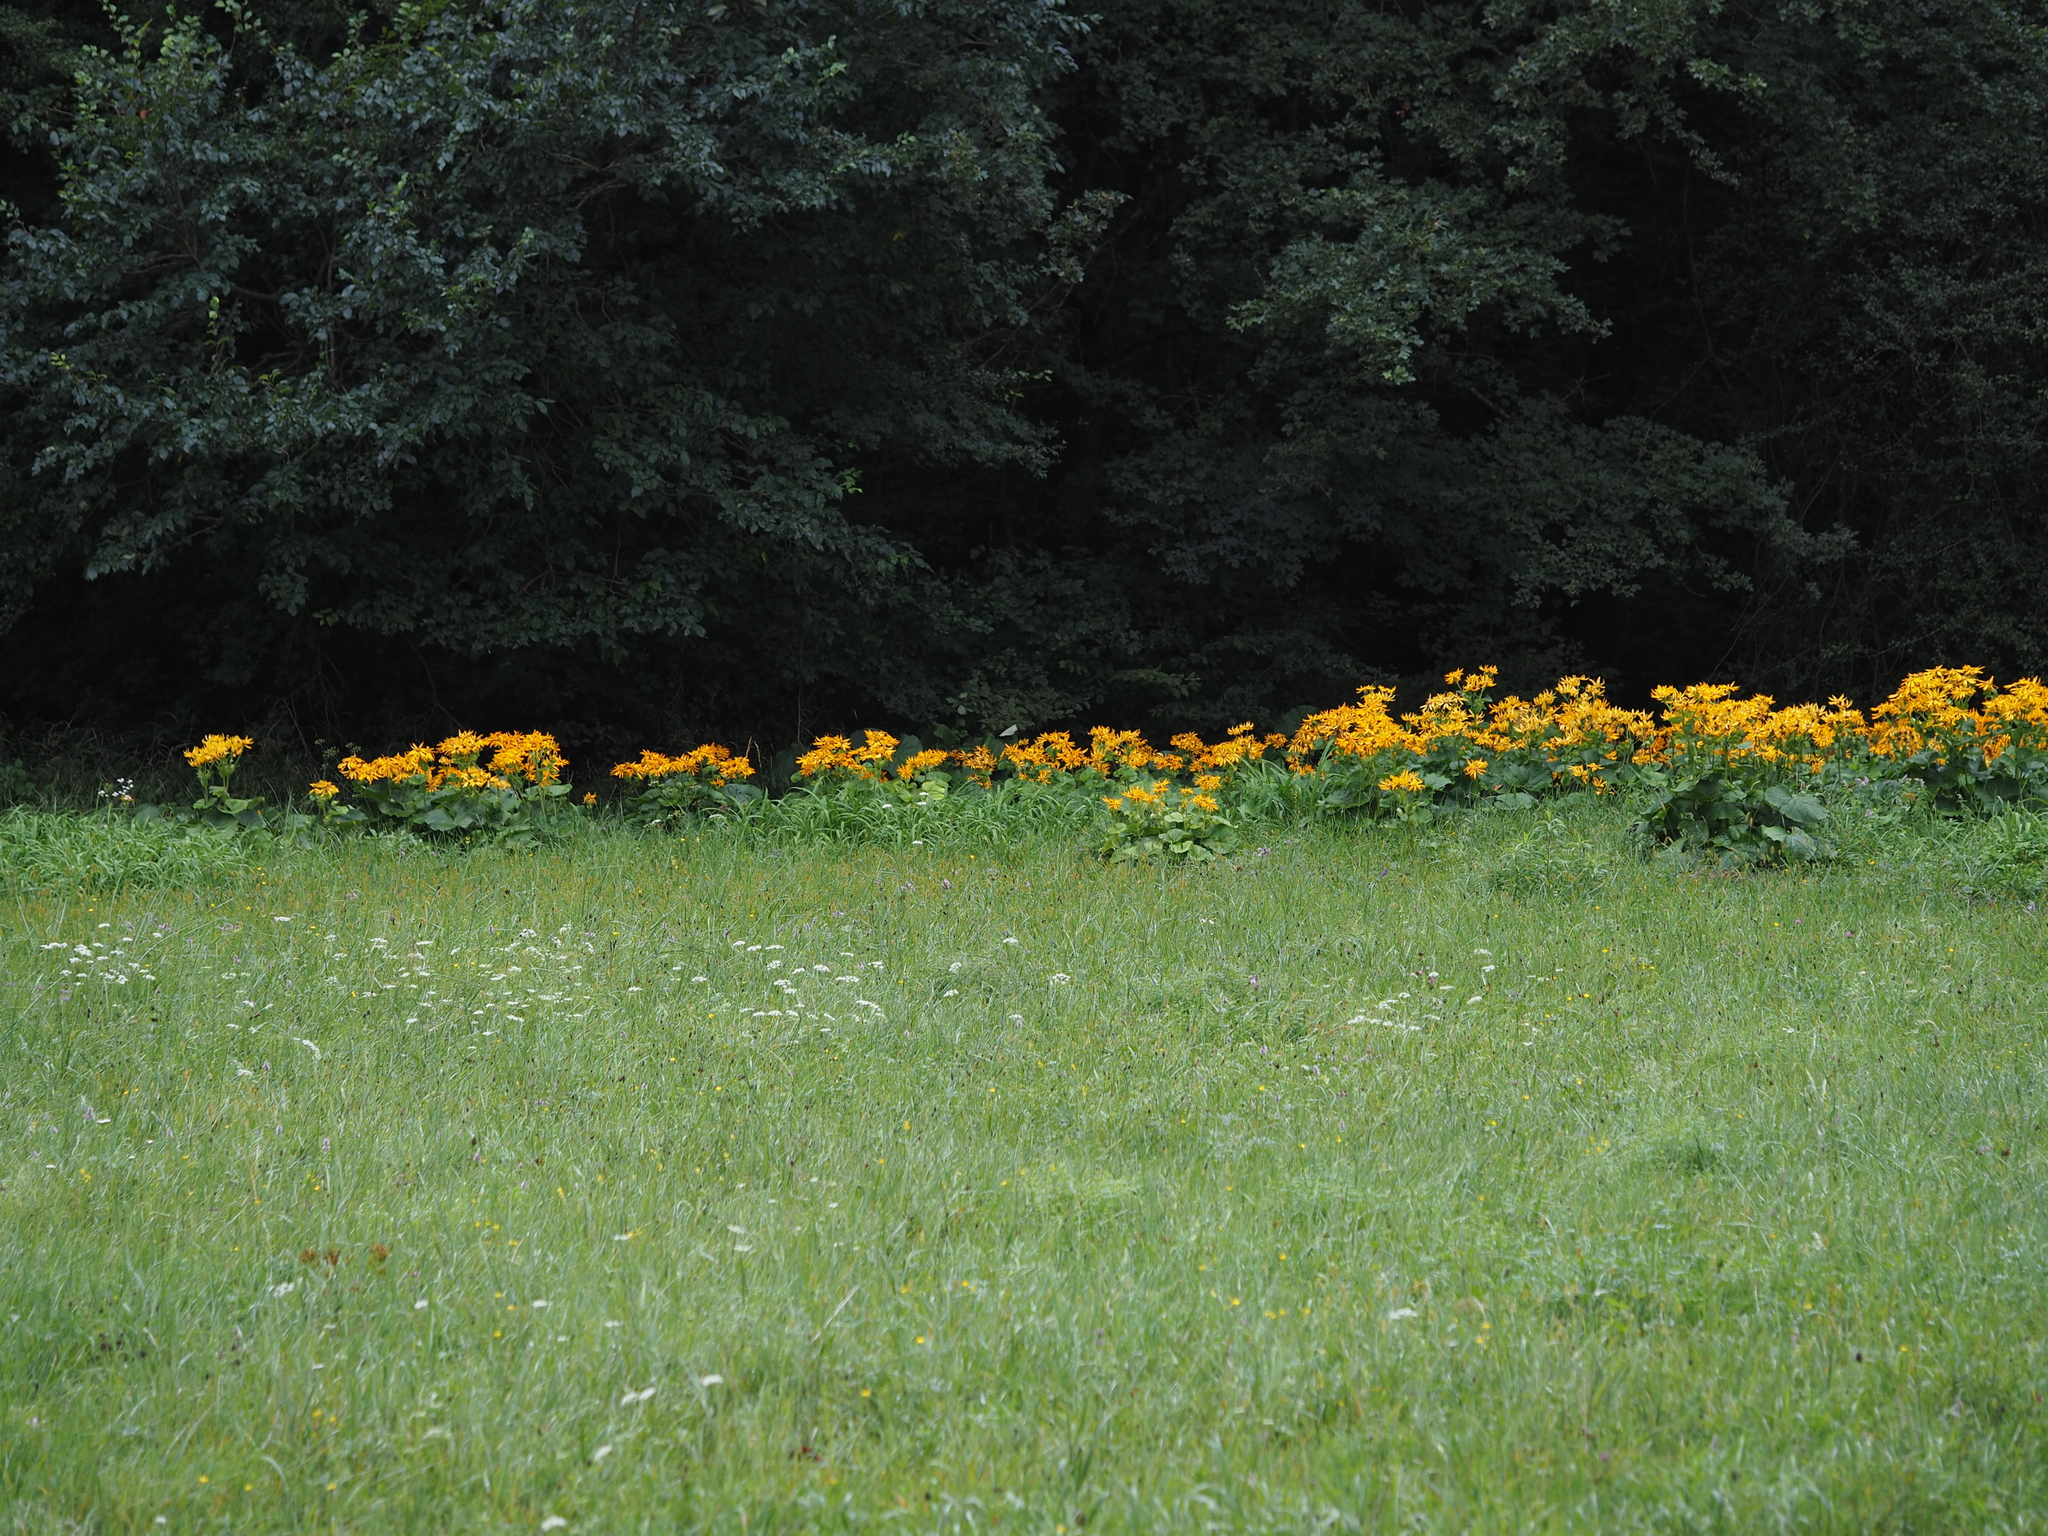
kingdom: Plantae
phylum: Tracheophyta
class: Magnoliopsida
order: Asterales
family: Asteraceae
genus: Ligularia
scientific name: Ligularia dentata
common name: Leopardplant
